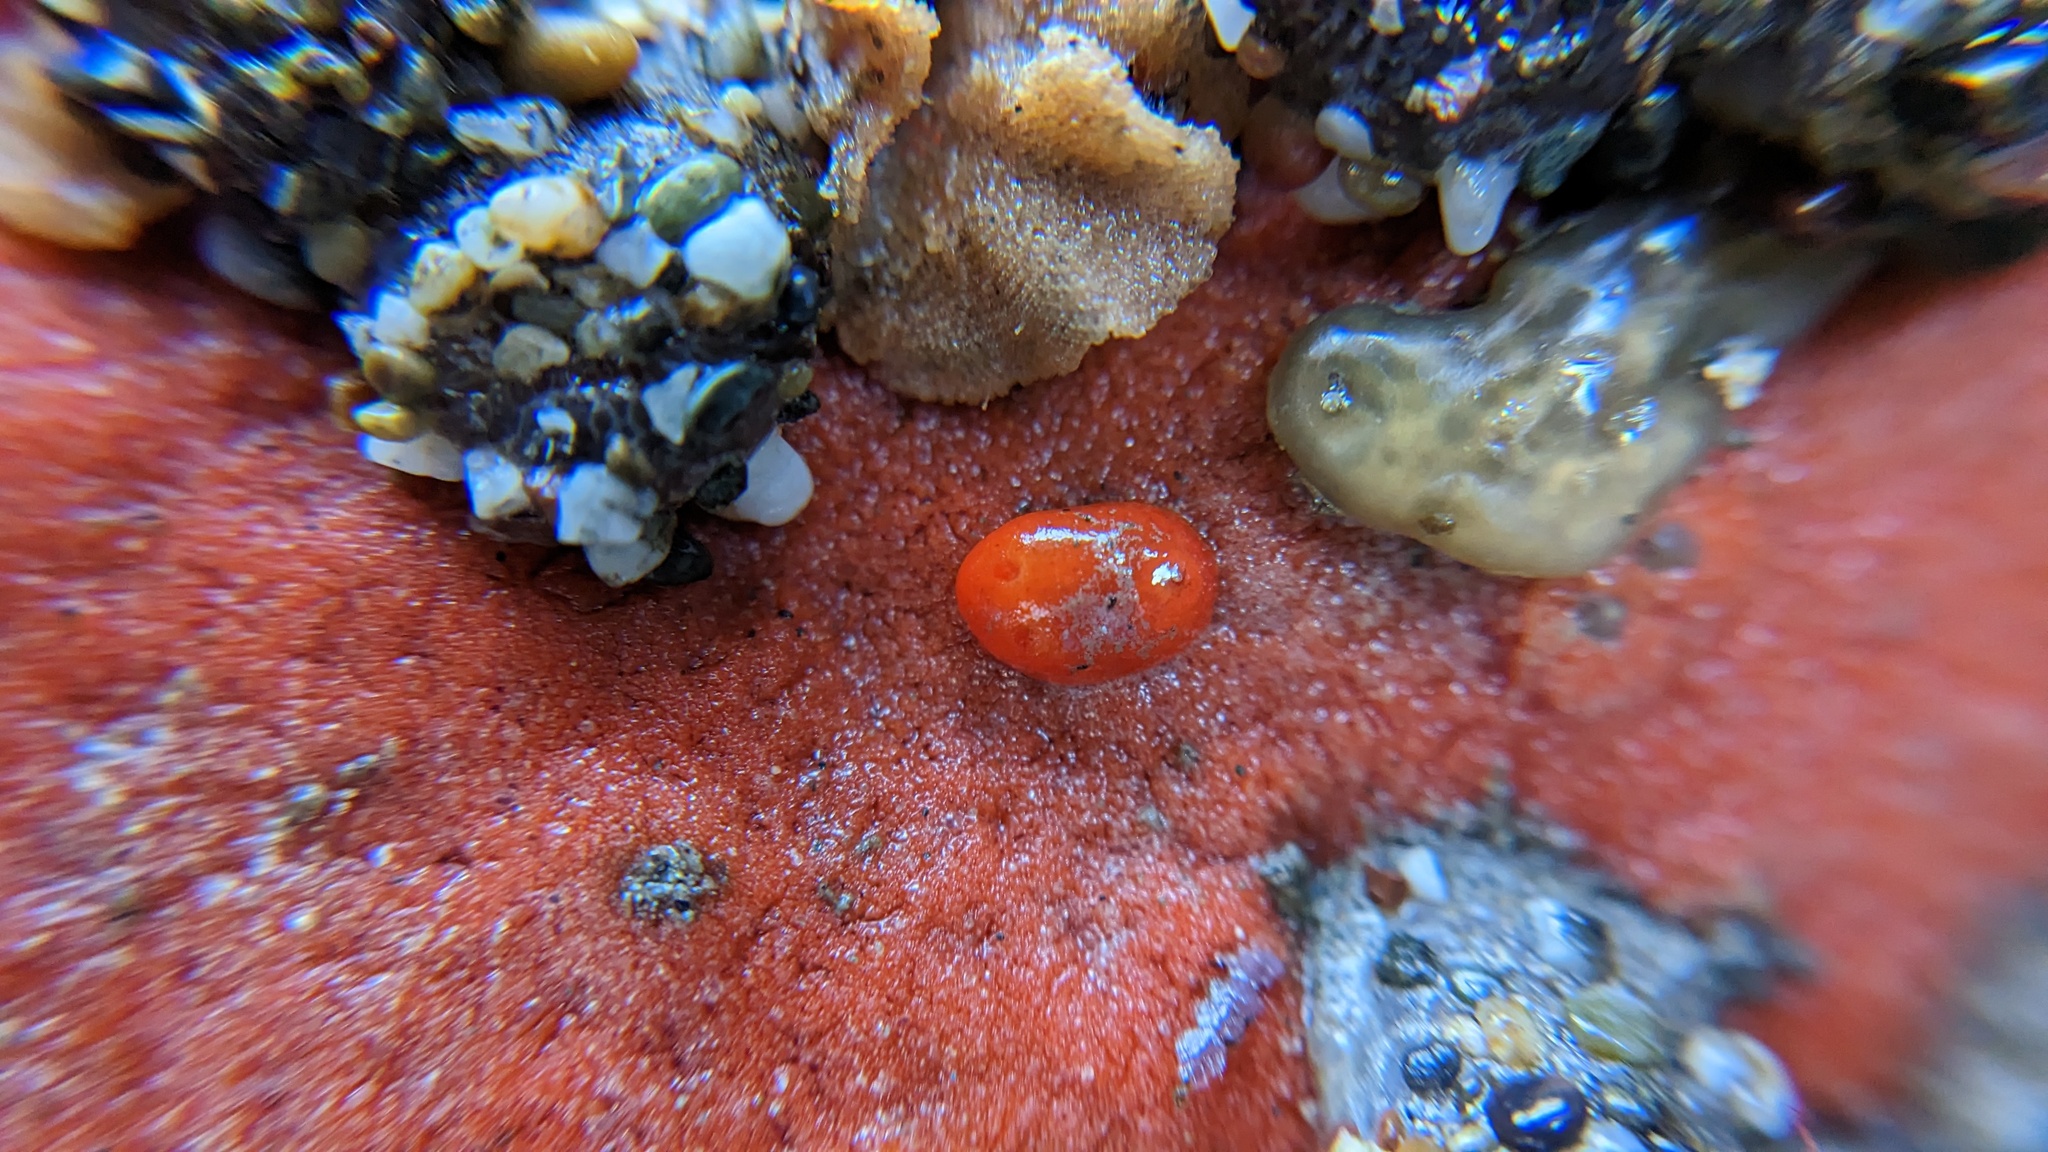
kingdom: Animalia
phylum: Mollusca
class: Gastropoda
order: Nudibranchia
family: Discodorididae
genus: Rostanga
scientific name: Rostanga pulchra
